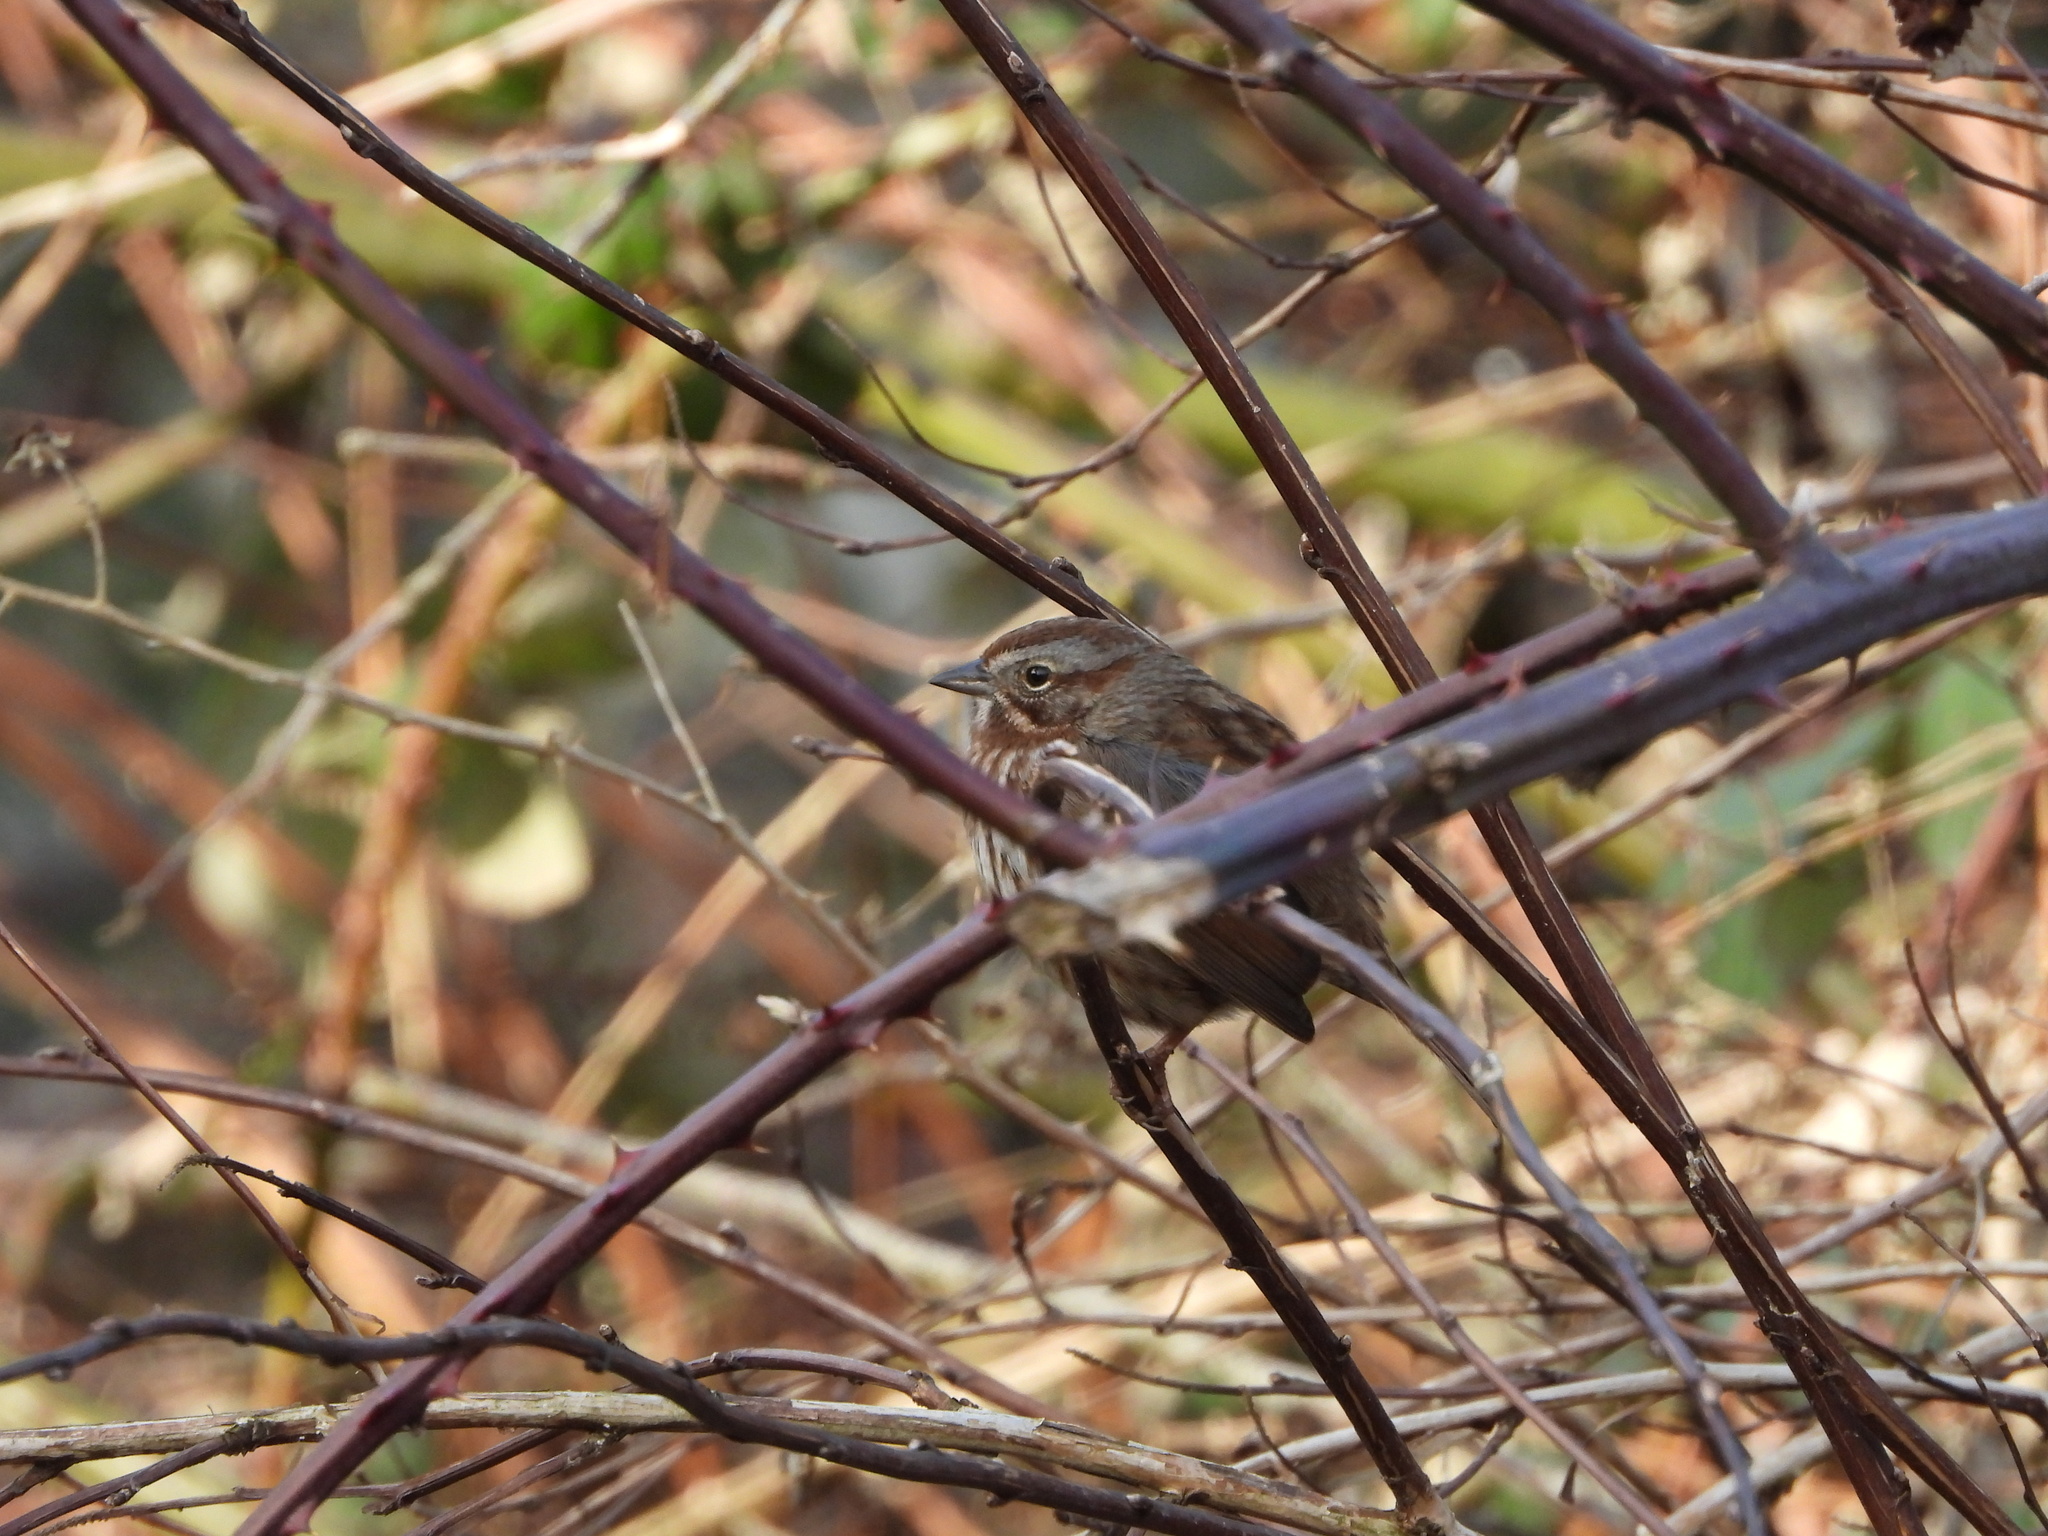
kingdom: Animalia
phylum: Chordata
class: Aves
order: Passeriformes
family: Passerellidae
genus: Melospiza
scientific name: Melospiza melodia
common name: Song sparrow
